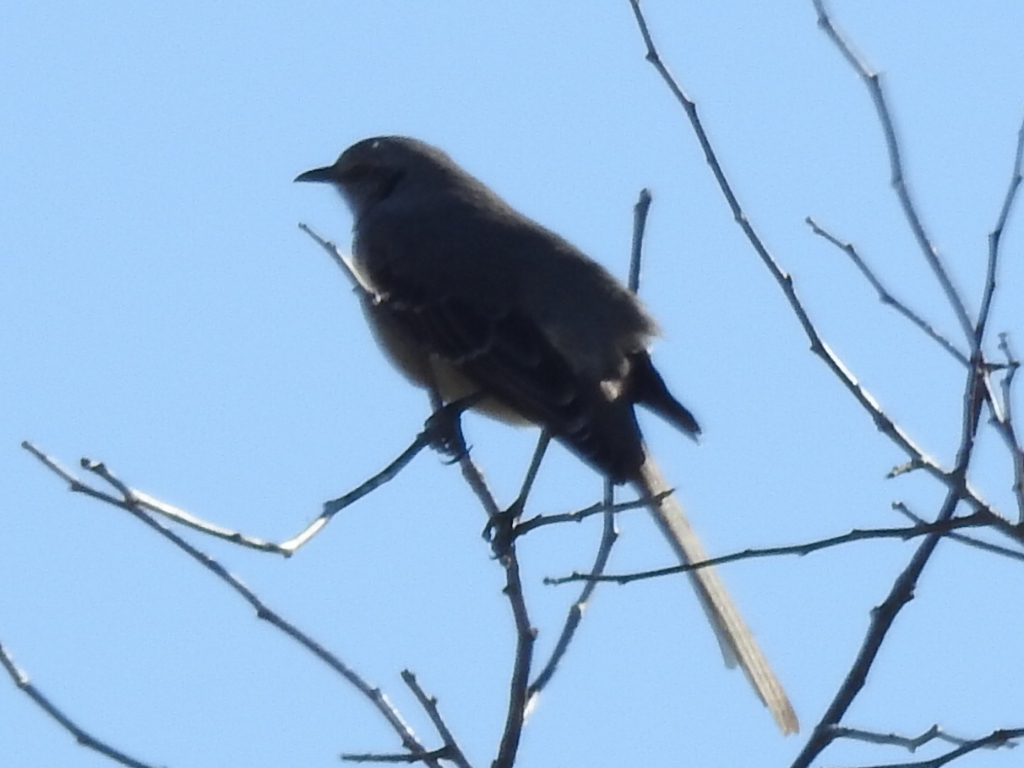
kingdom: Animalia
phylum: Chordata
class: Aves
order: Passeriformes
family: Mimidae
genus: Mimus
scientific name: Mimus polyglottos
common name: Northern mockingbird
